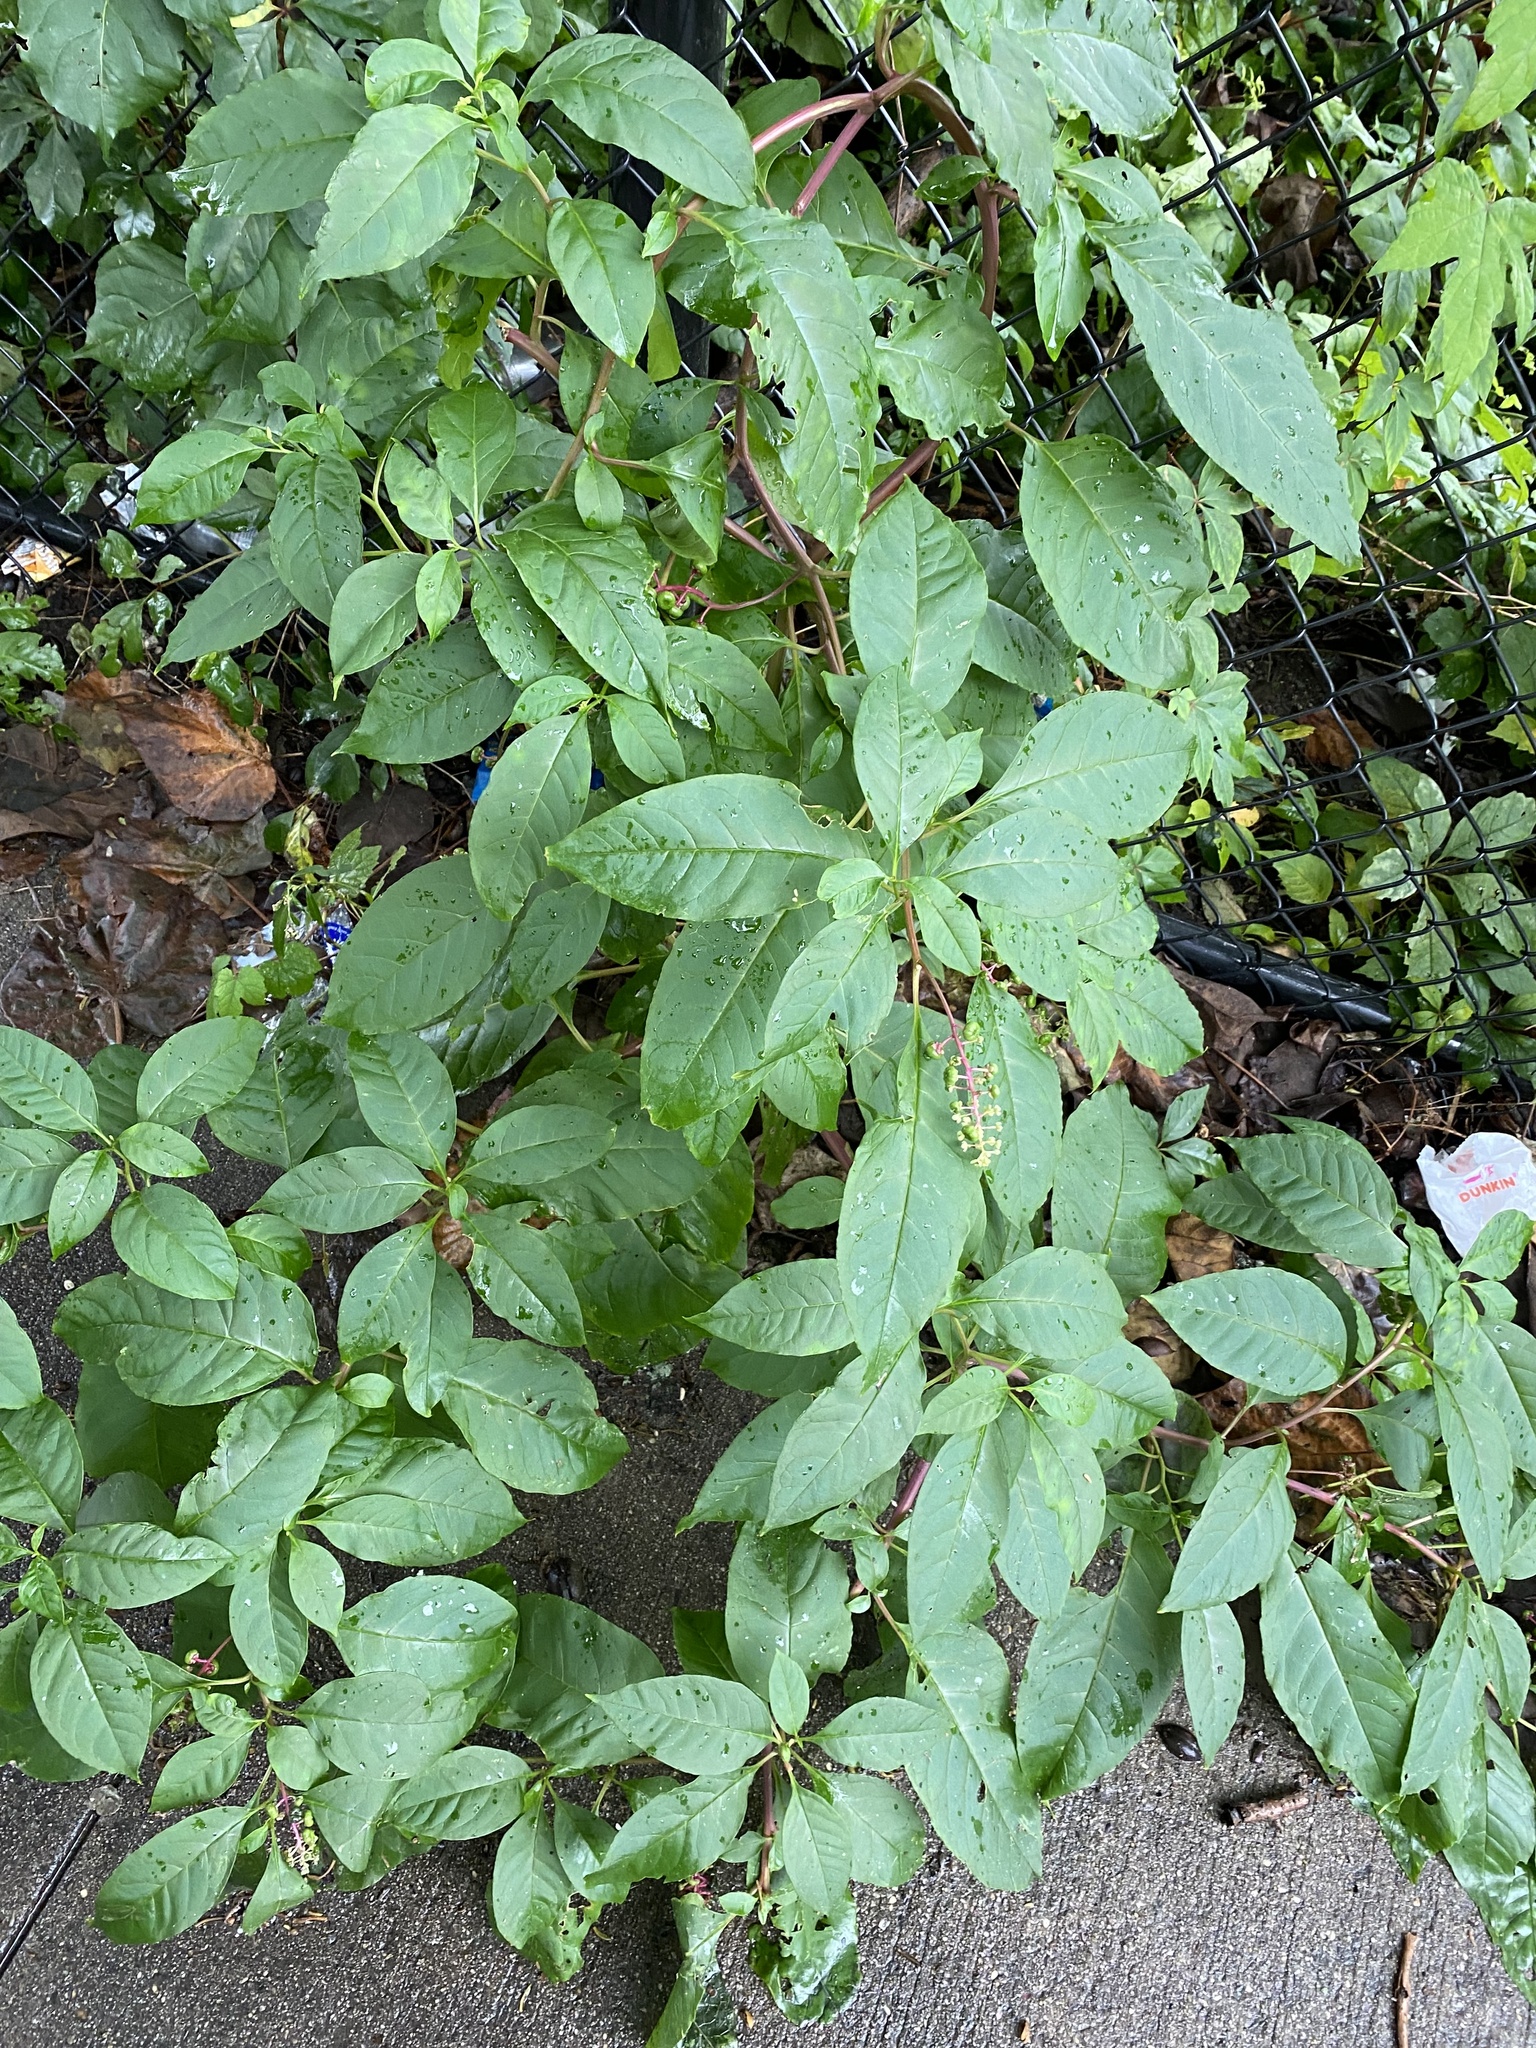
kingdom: Plantae
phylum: Tracheophyta
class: Magnoliopsida
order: Caryophyllales
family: Phytolaccaceae
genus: Phytolacca
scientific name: Phytolacca americana
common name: American pokeweed
